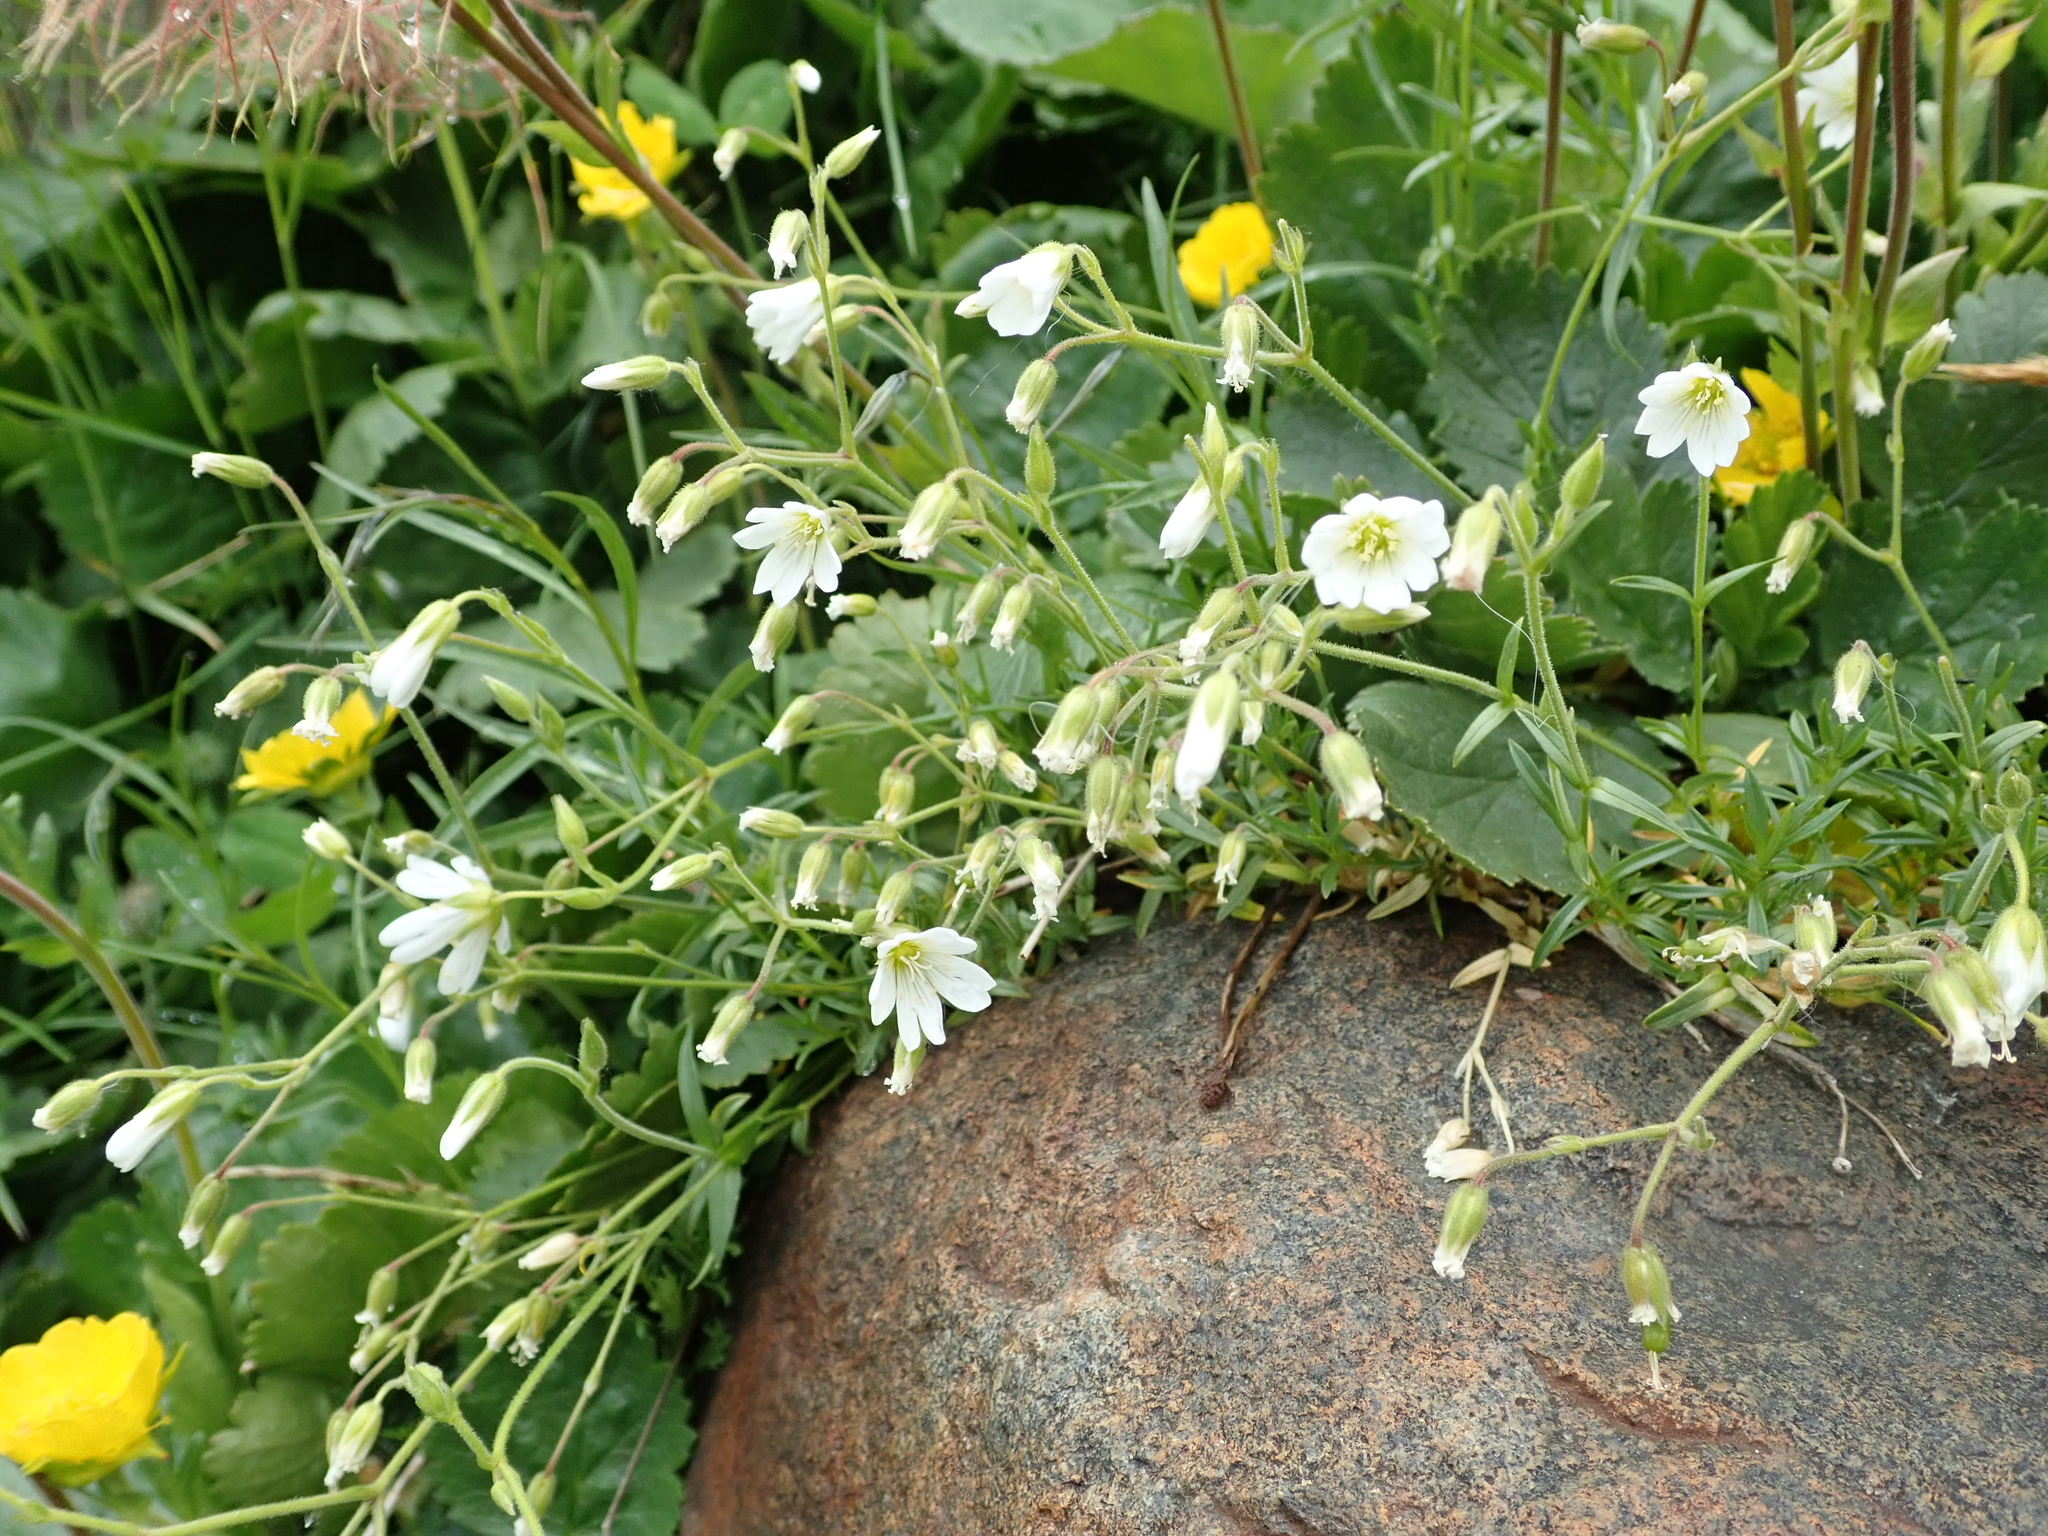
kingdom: Plantae
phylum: Tracheophyta
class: Magnoliopsida
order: Caryophyllales
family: Caryophyllaceae
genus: Cerastium
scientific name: Cerastium arvense
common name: Field mouse-ear
